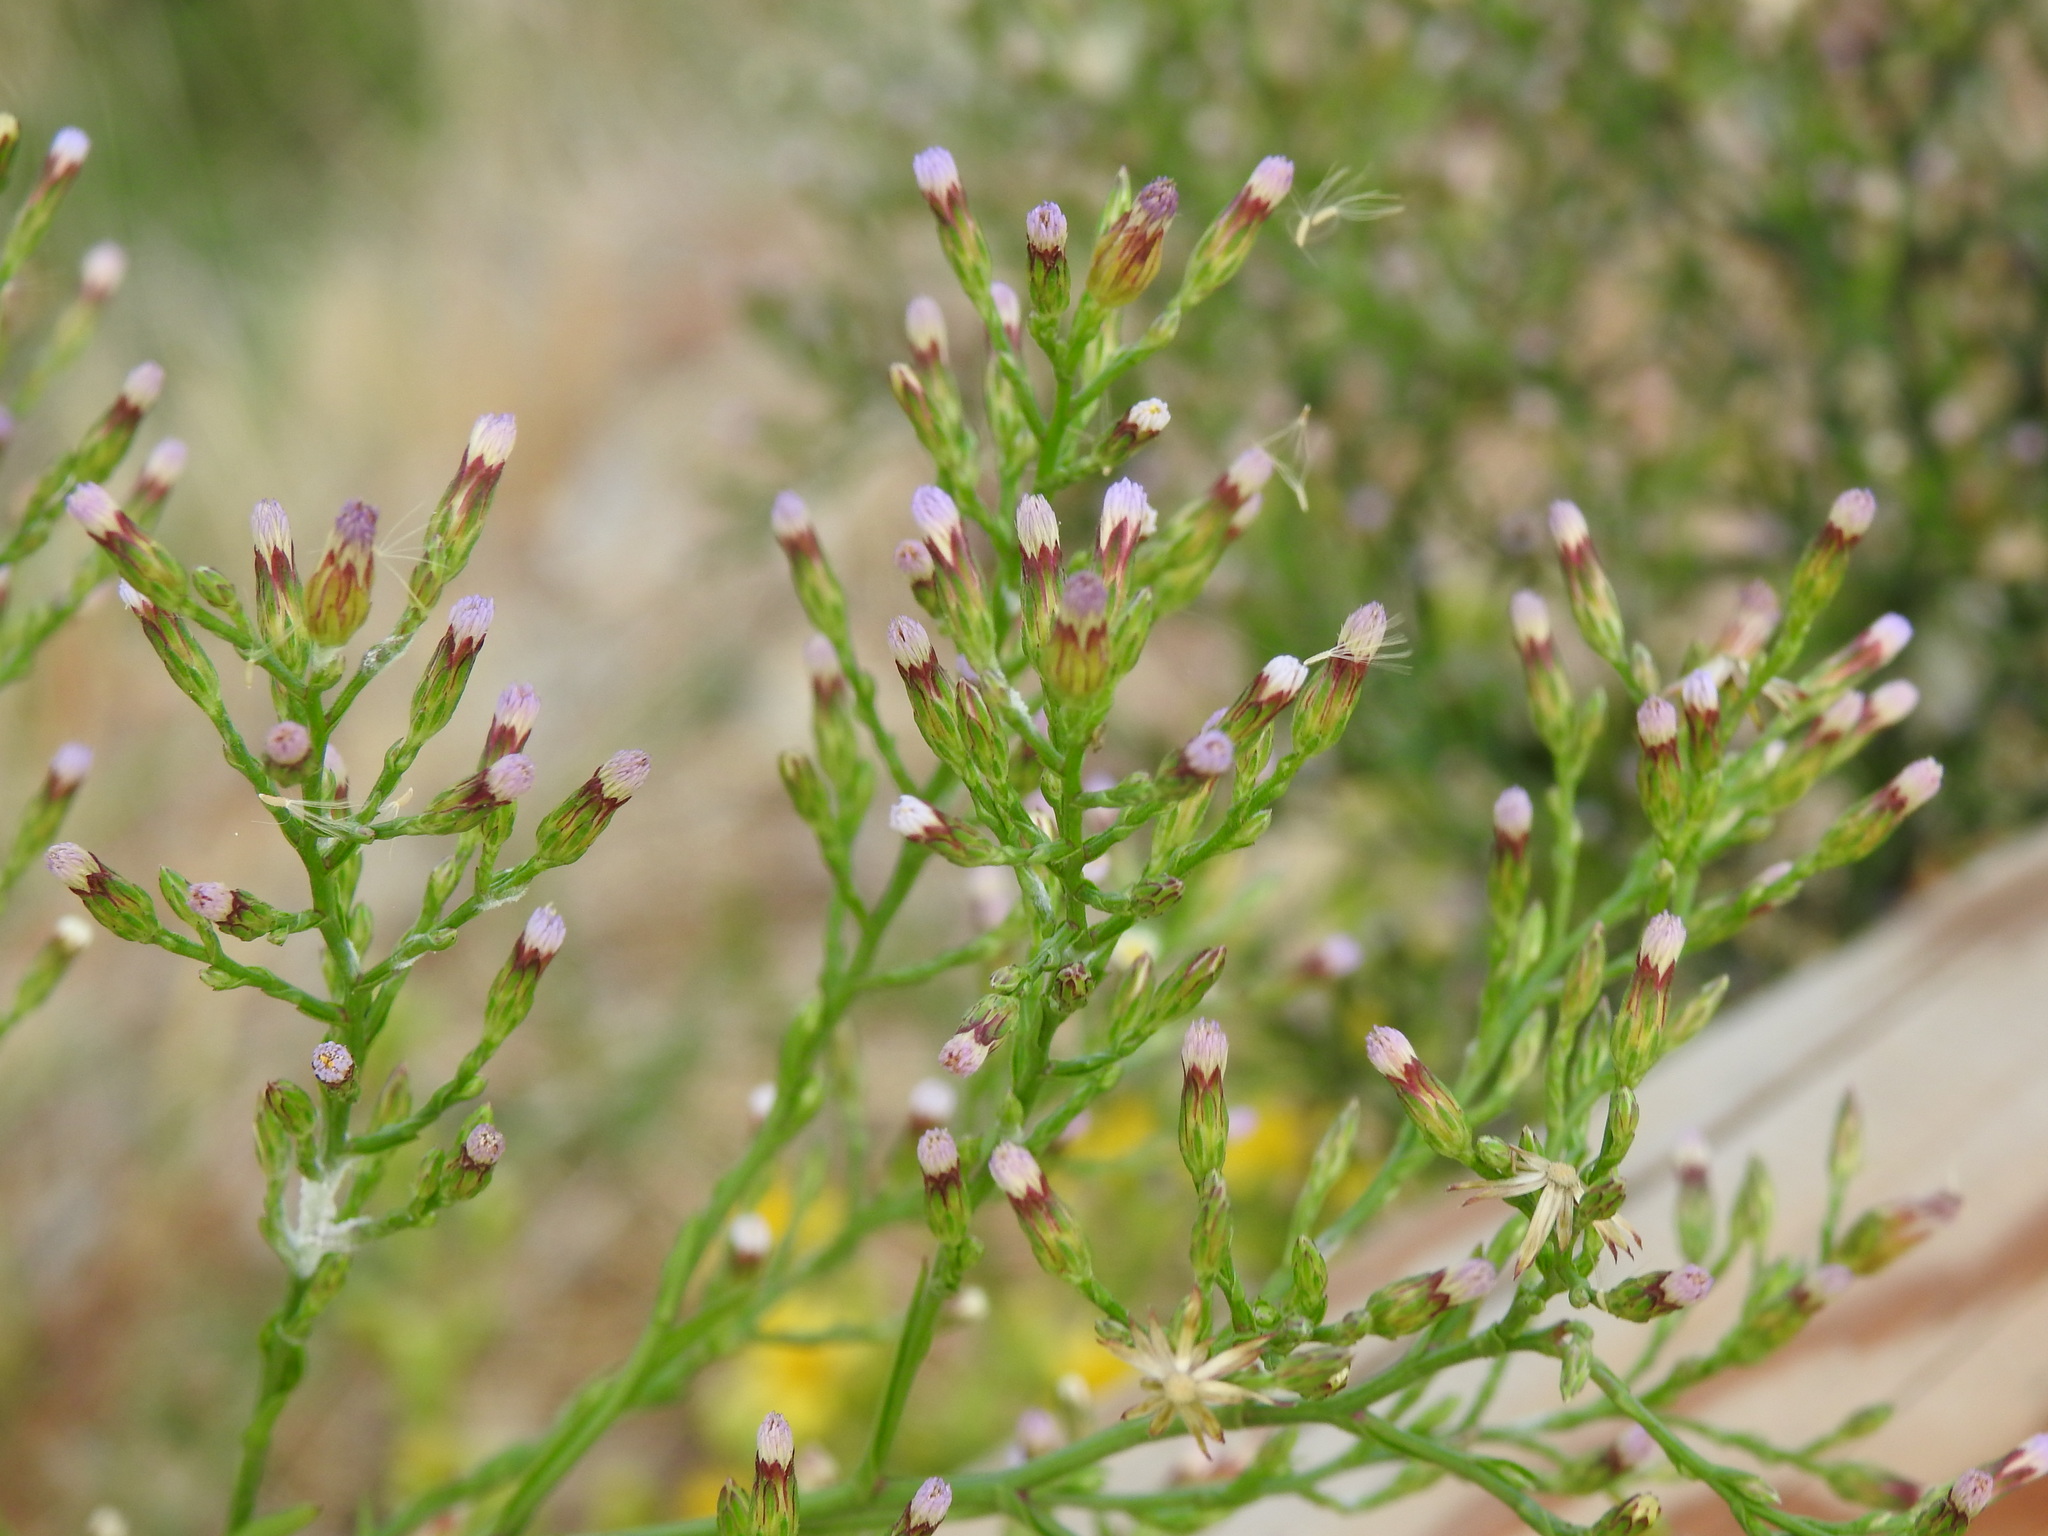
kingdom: Plantae
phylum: Tracheophyta
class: Magnoliopsida
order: Asterales
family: Asteraceae
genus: Symphyotrichum
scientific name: Symphyotrichum squamatum
